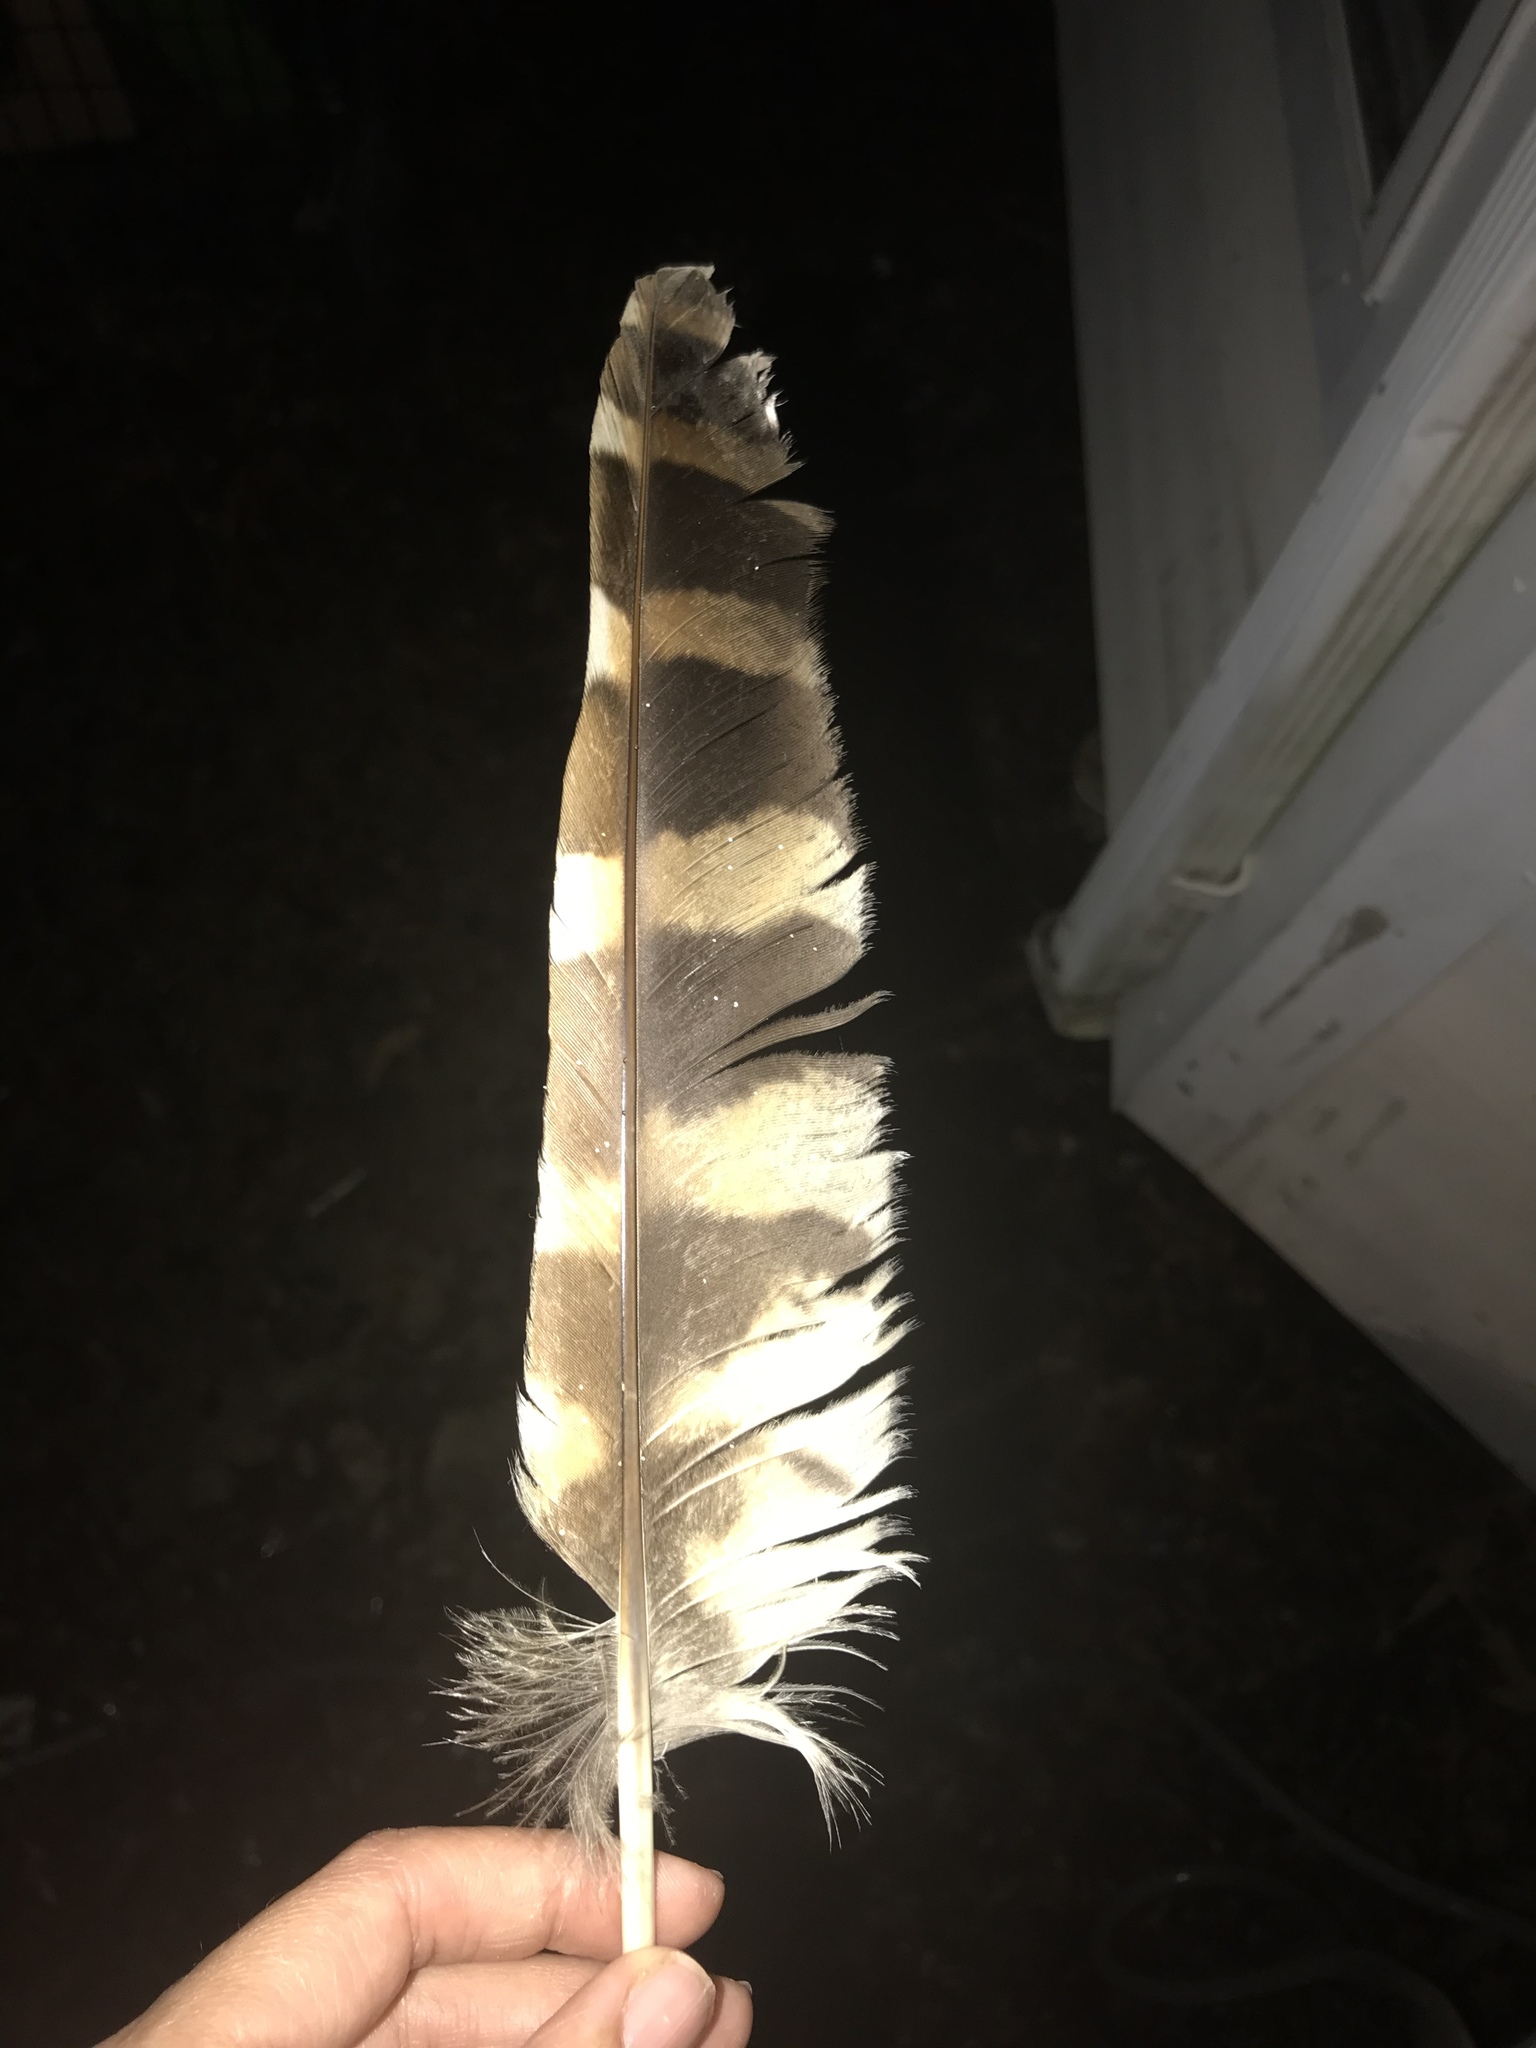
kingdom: Animalia
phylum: Chordata
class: Aves
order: Strigiformes
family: Strigidae
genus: Strix
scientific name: Strix varia
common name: Barred owl
